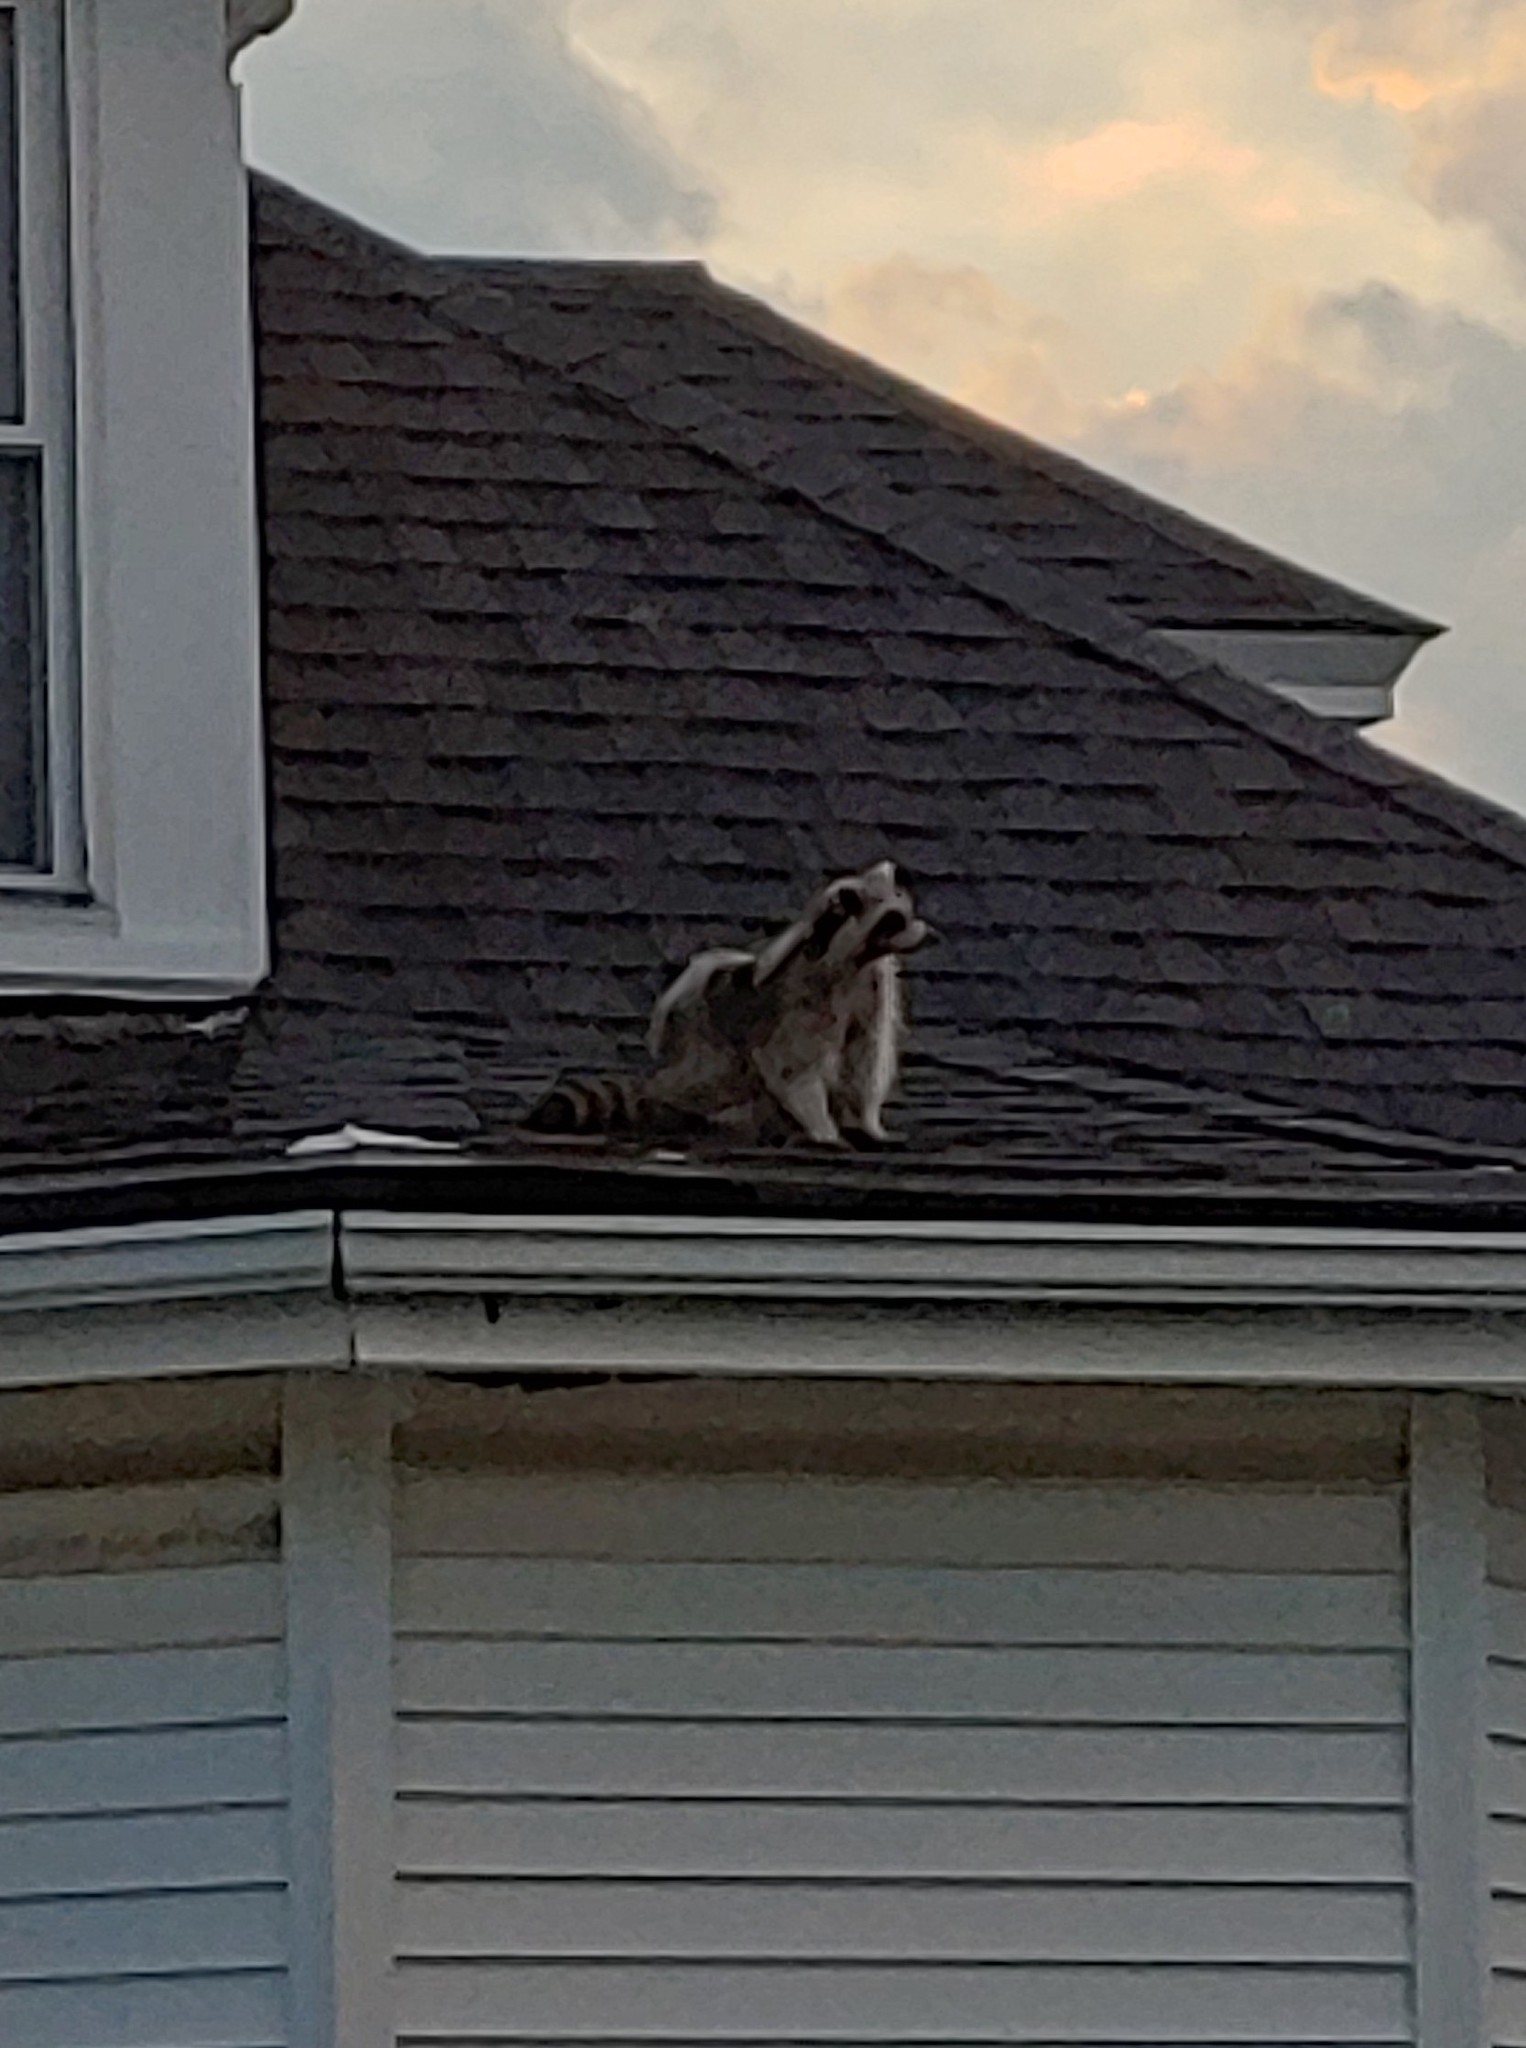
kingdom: Animalia
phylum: Chordata
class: Mammalia
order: Carnivora
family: Procyonidae
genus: Procyon
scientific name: Procyon lotor
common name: Raccoon
